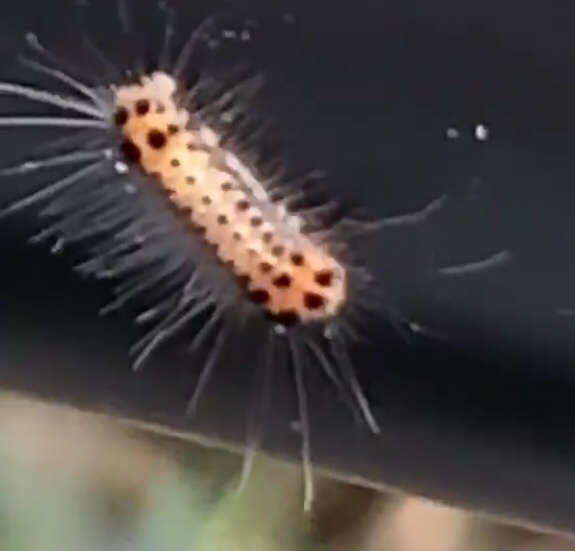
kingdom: Animalia
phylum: Arthropoda
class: Insecta
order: Lepidoptera
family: Zygaenidae
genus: Artona
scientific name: Artona martini
